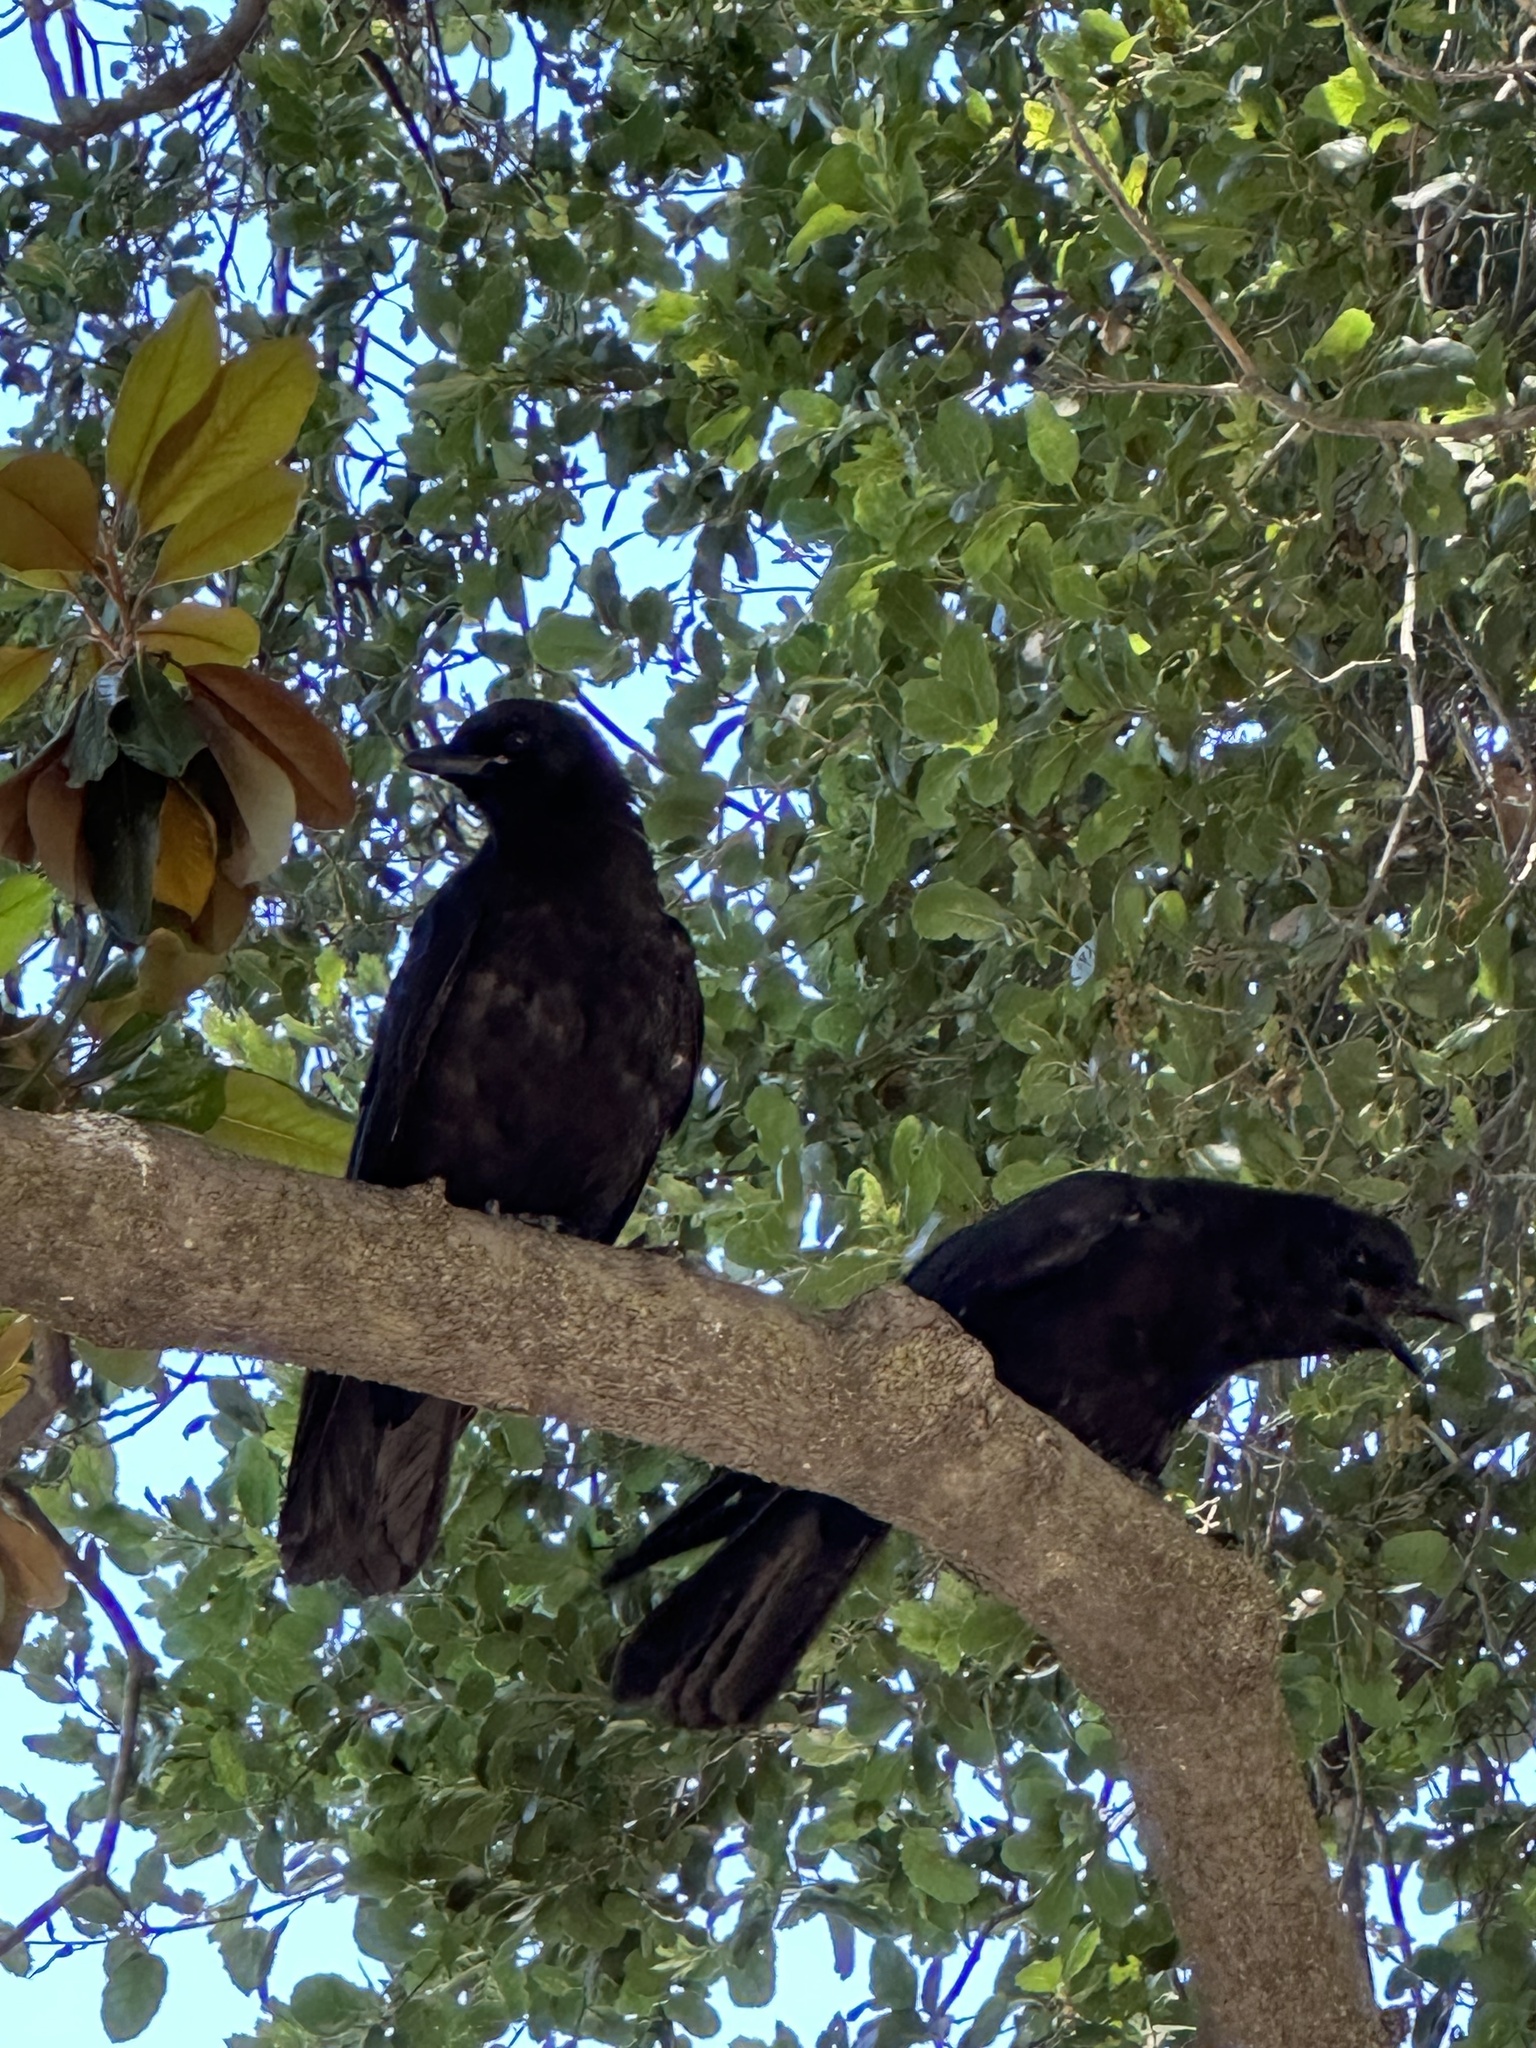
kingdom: Animalia
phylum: Chordata
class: Aves
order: Passeriformes
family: Corvidae
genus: Corvus
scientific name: Corvus brachyrhynchos
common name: American crow
